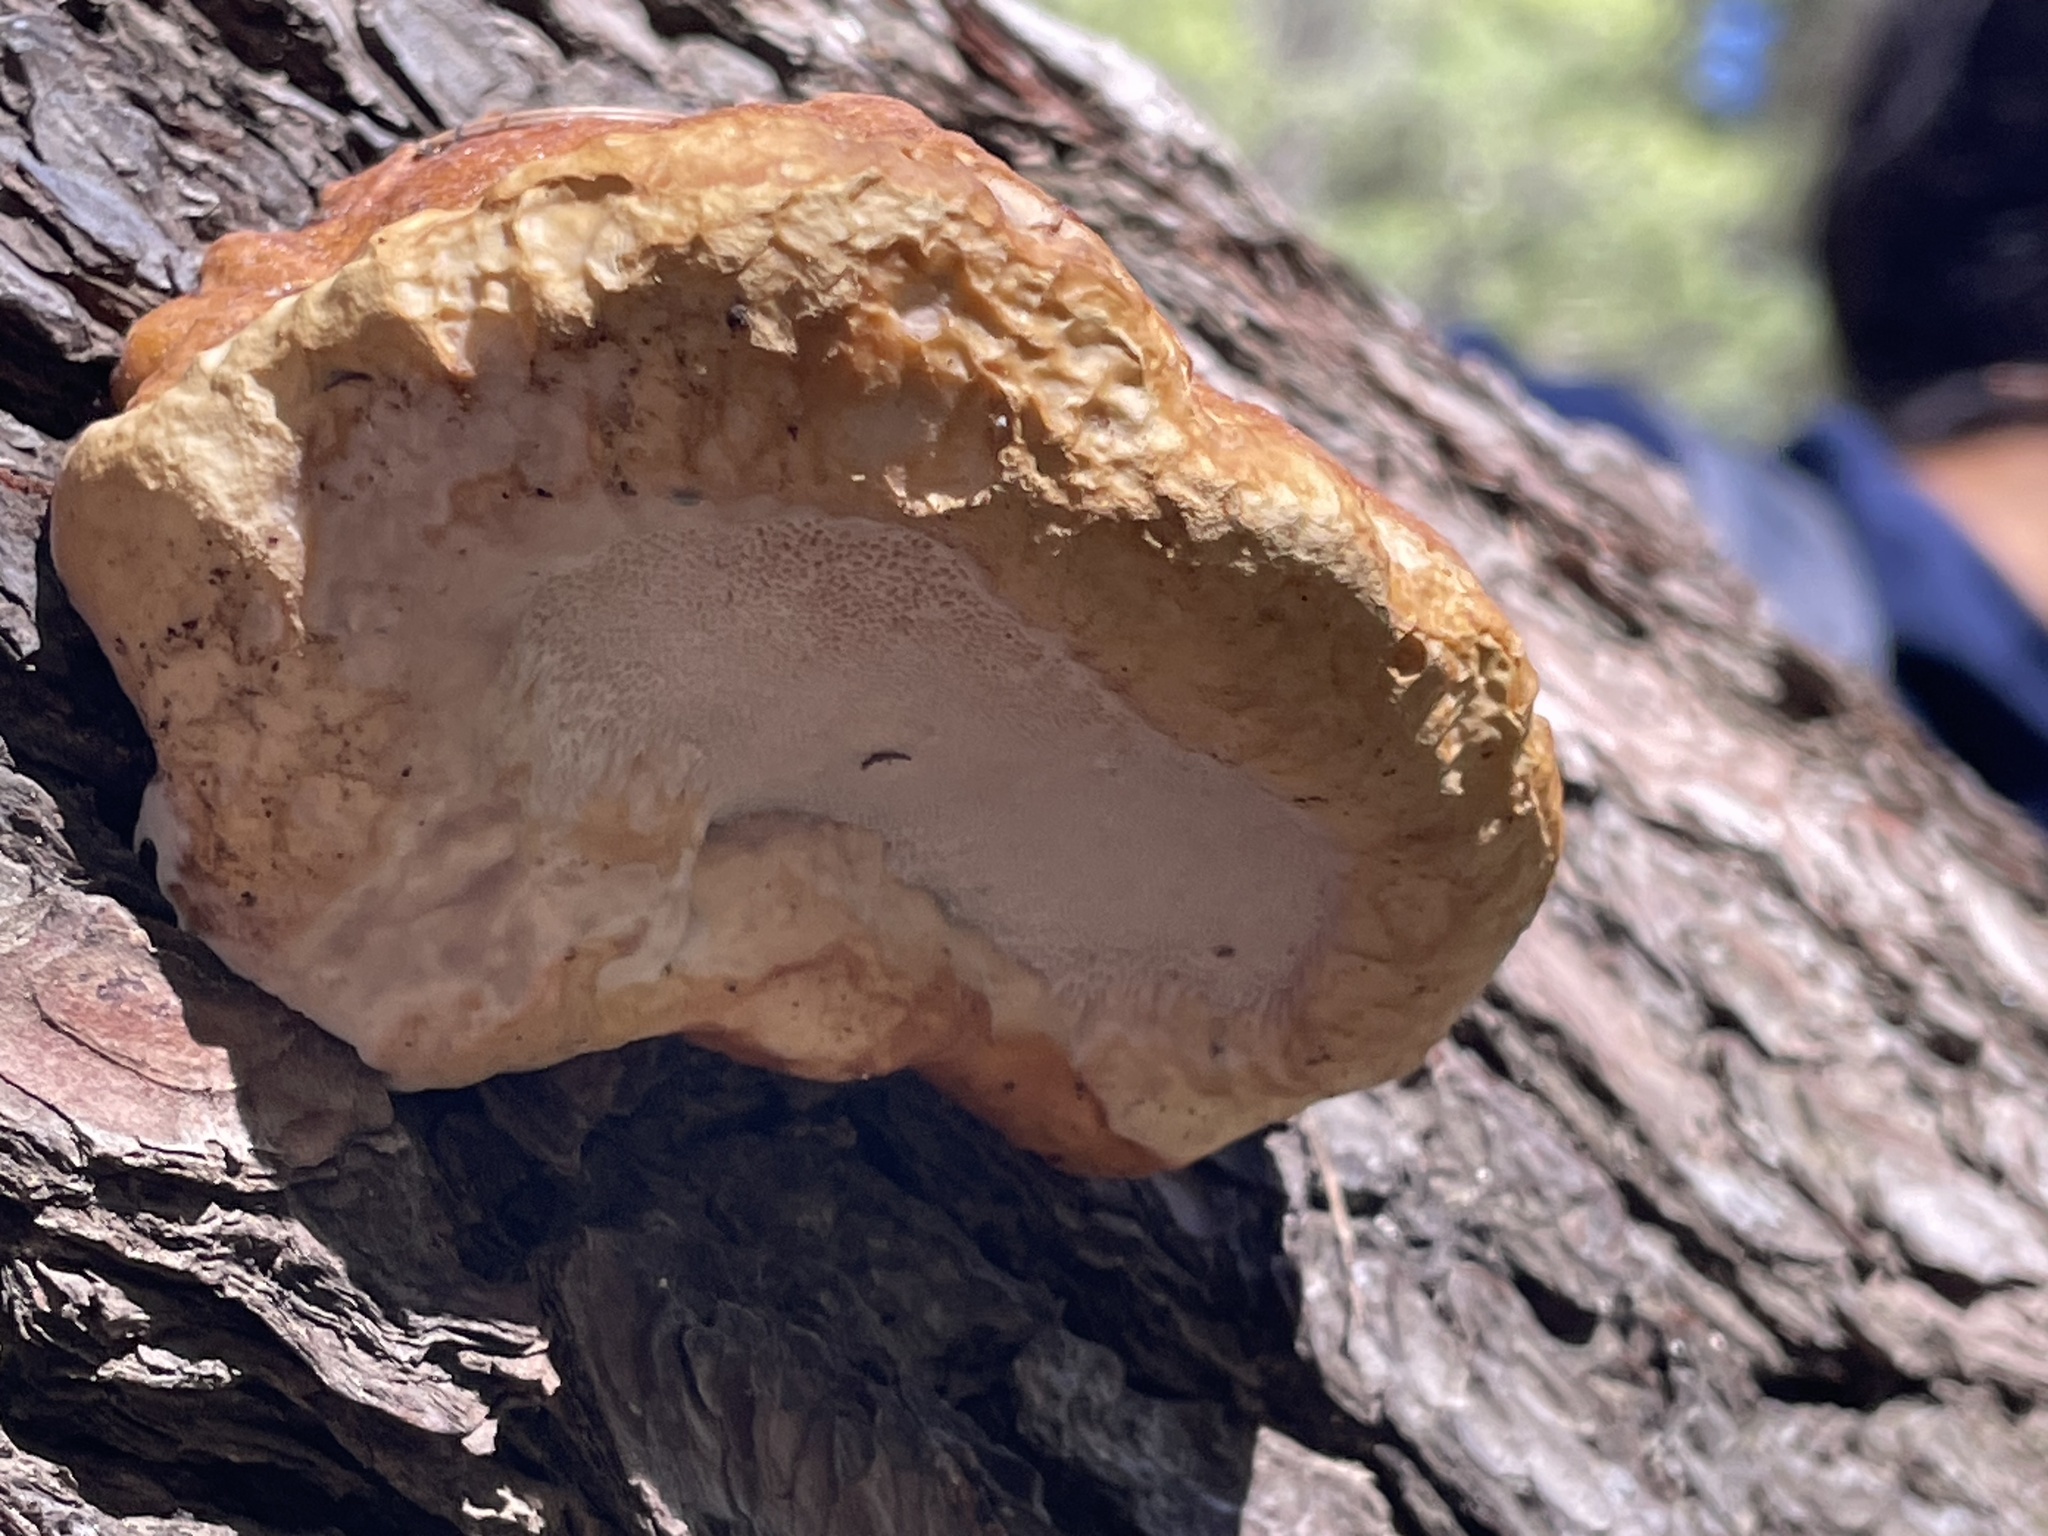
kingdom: Fungi
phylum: Basidiomycota
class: Agaricomycetes
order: Polyporales
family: Fomitopsidaceae
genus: Fomitopsis
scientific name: Fomitopsis schrenkii
